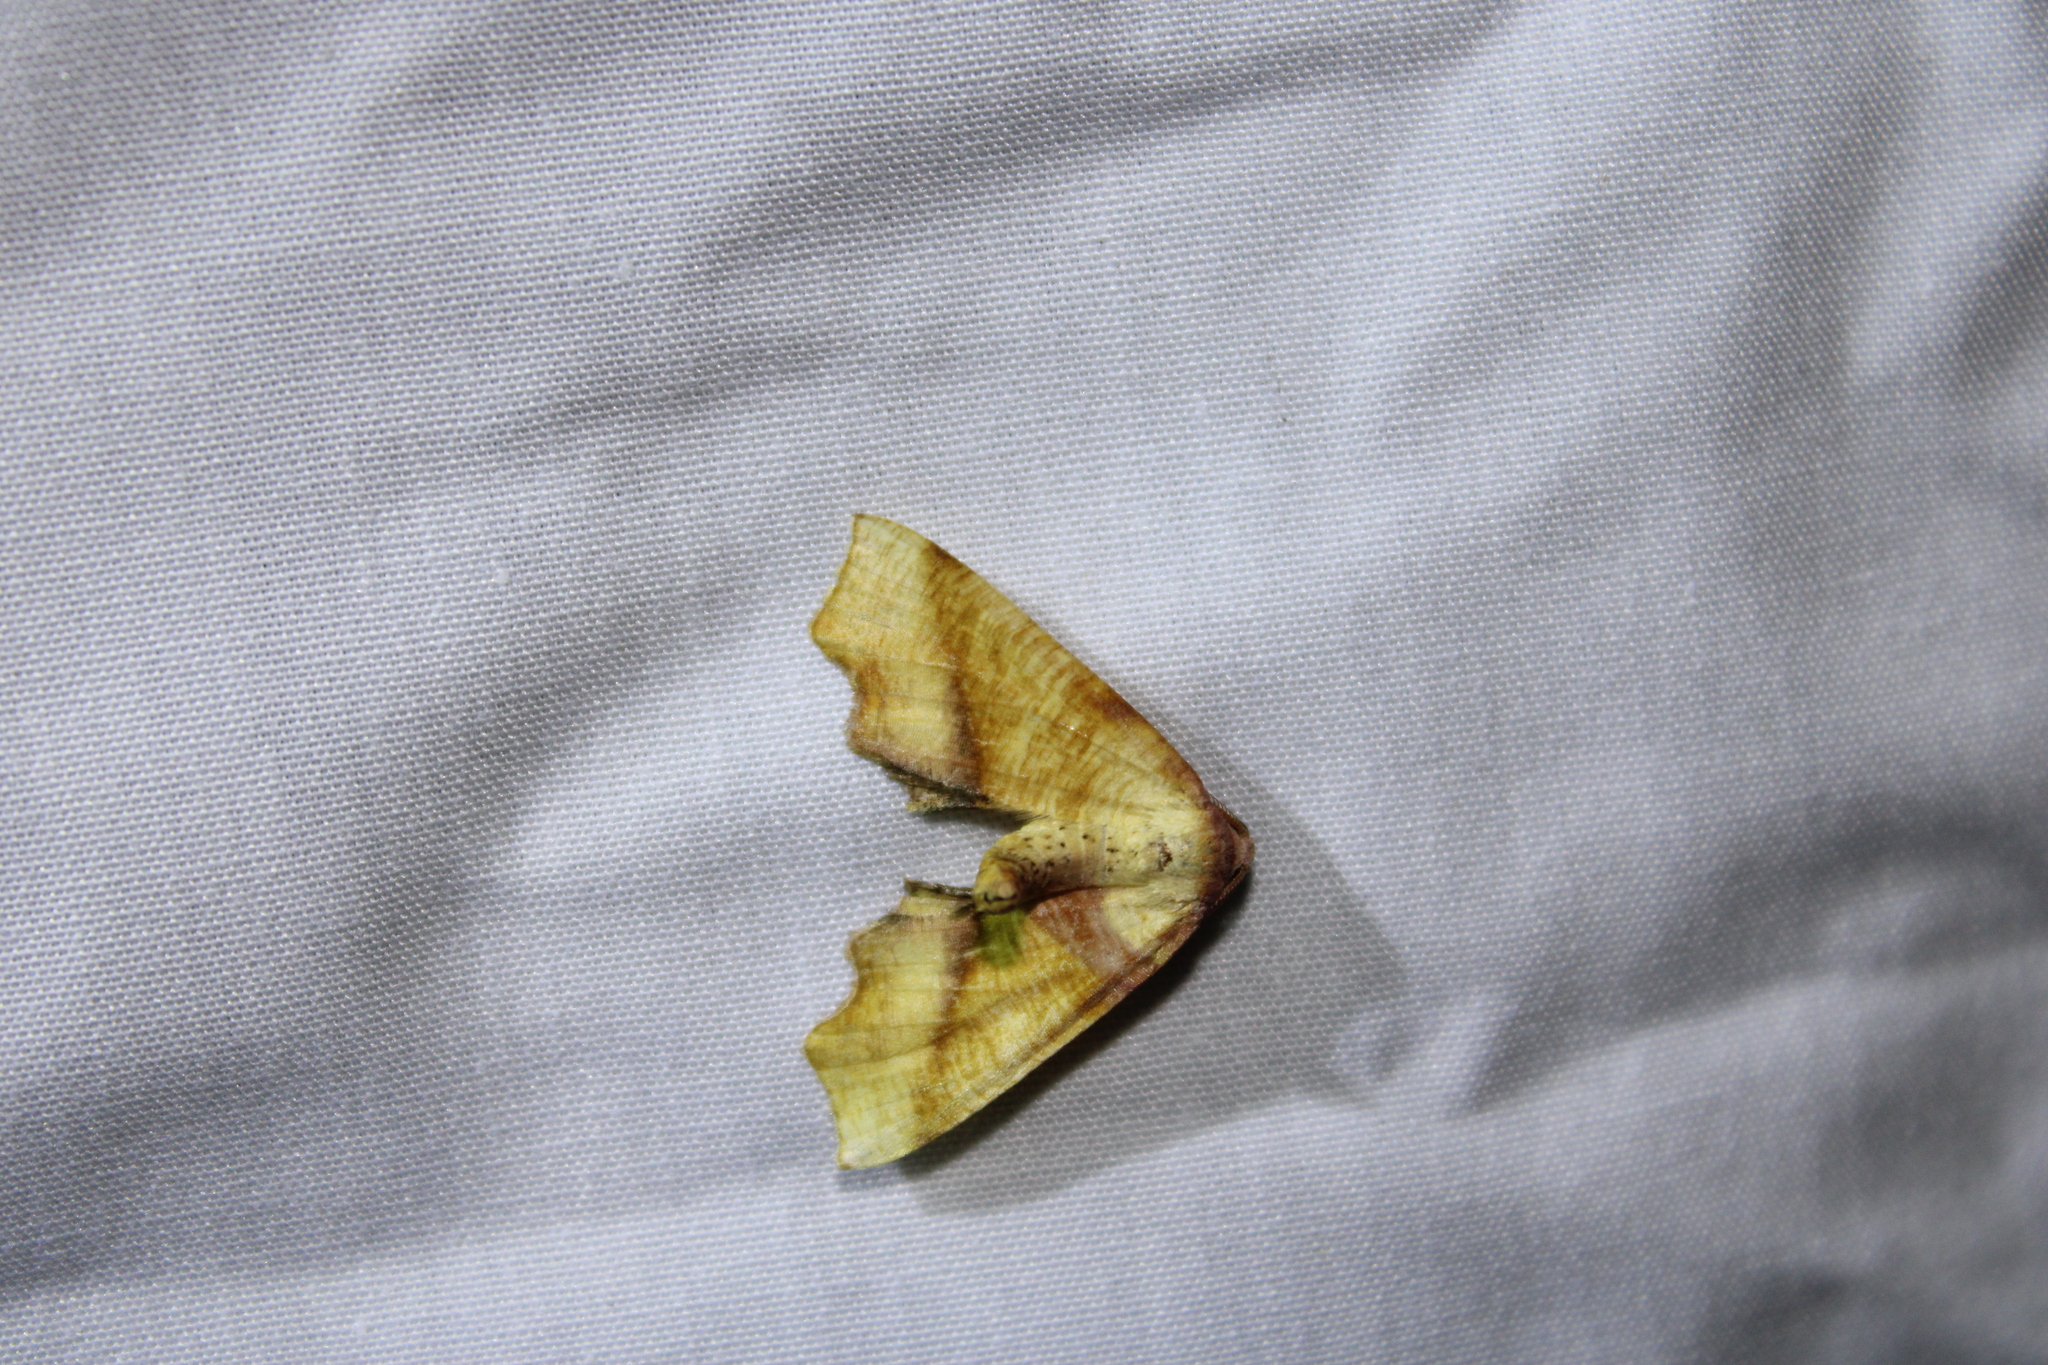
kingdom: Animalia
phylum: Arthropoda
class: Insecta
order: Lepidoptera
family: Geometridae
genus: Plagodis
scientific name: Plagodis fervidaria
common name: Fervid plagodis
